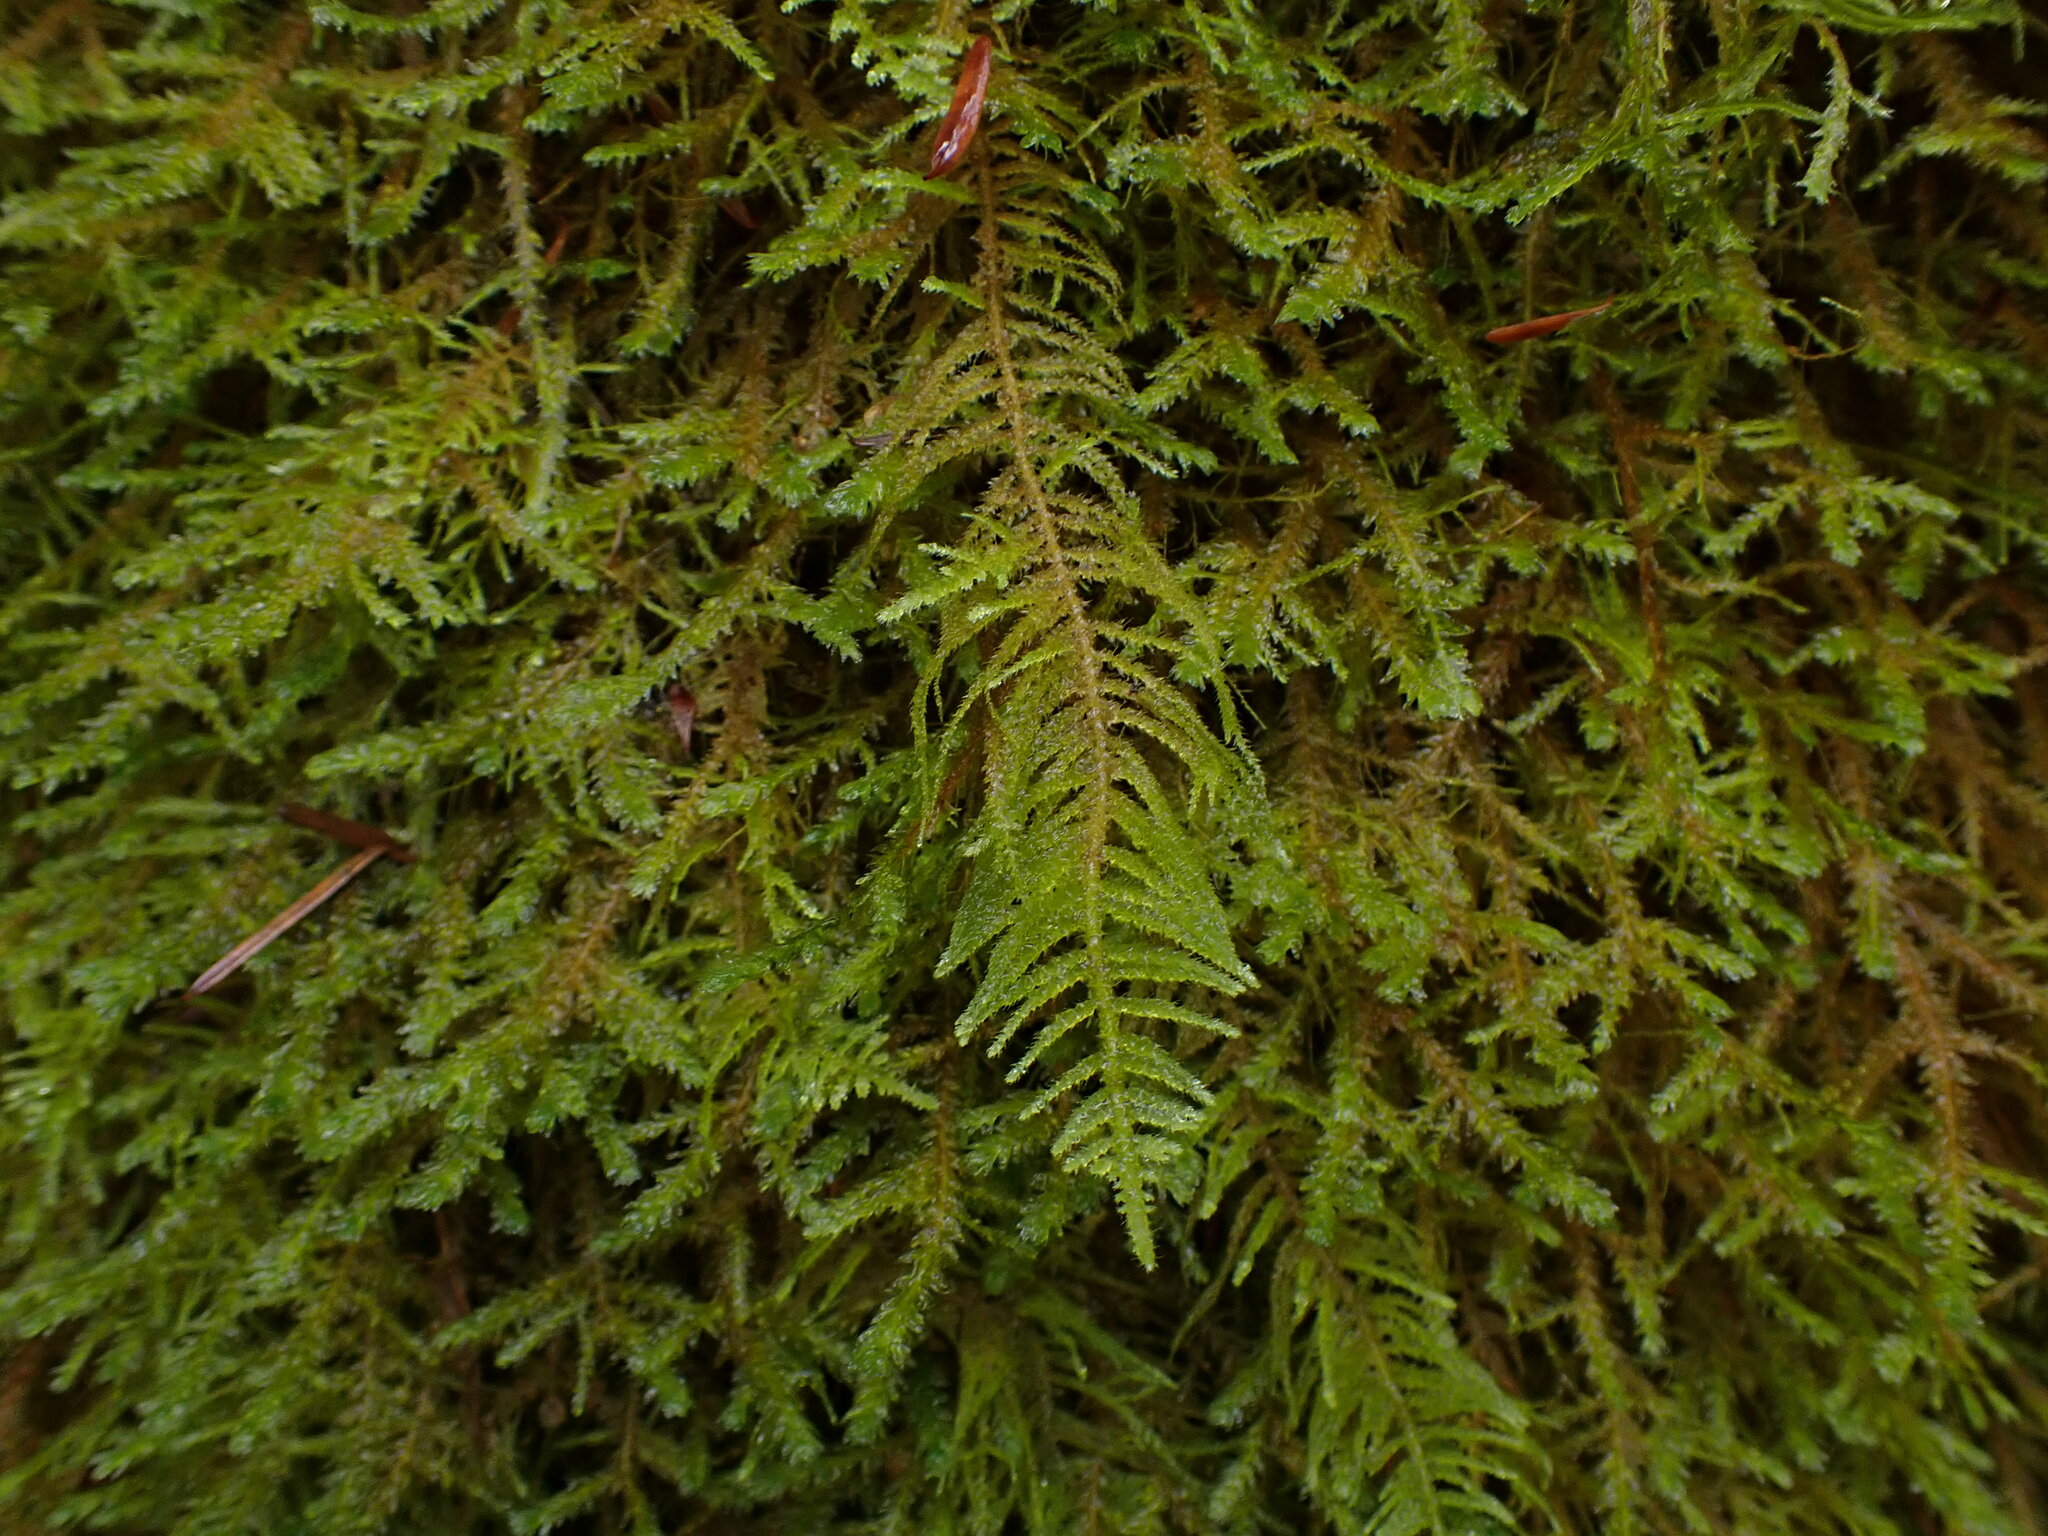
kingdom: Plantae
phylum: Bryophyta
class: Bryopsida
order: Hypnales
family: Brachytheciaceae
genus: Kindbergia
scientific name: Kindbergia oregana
